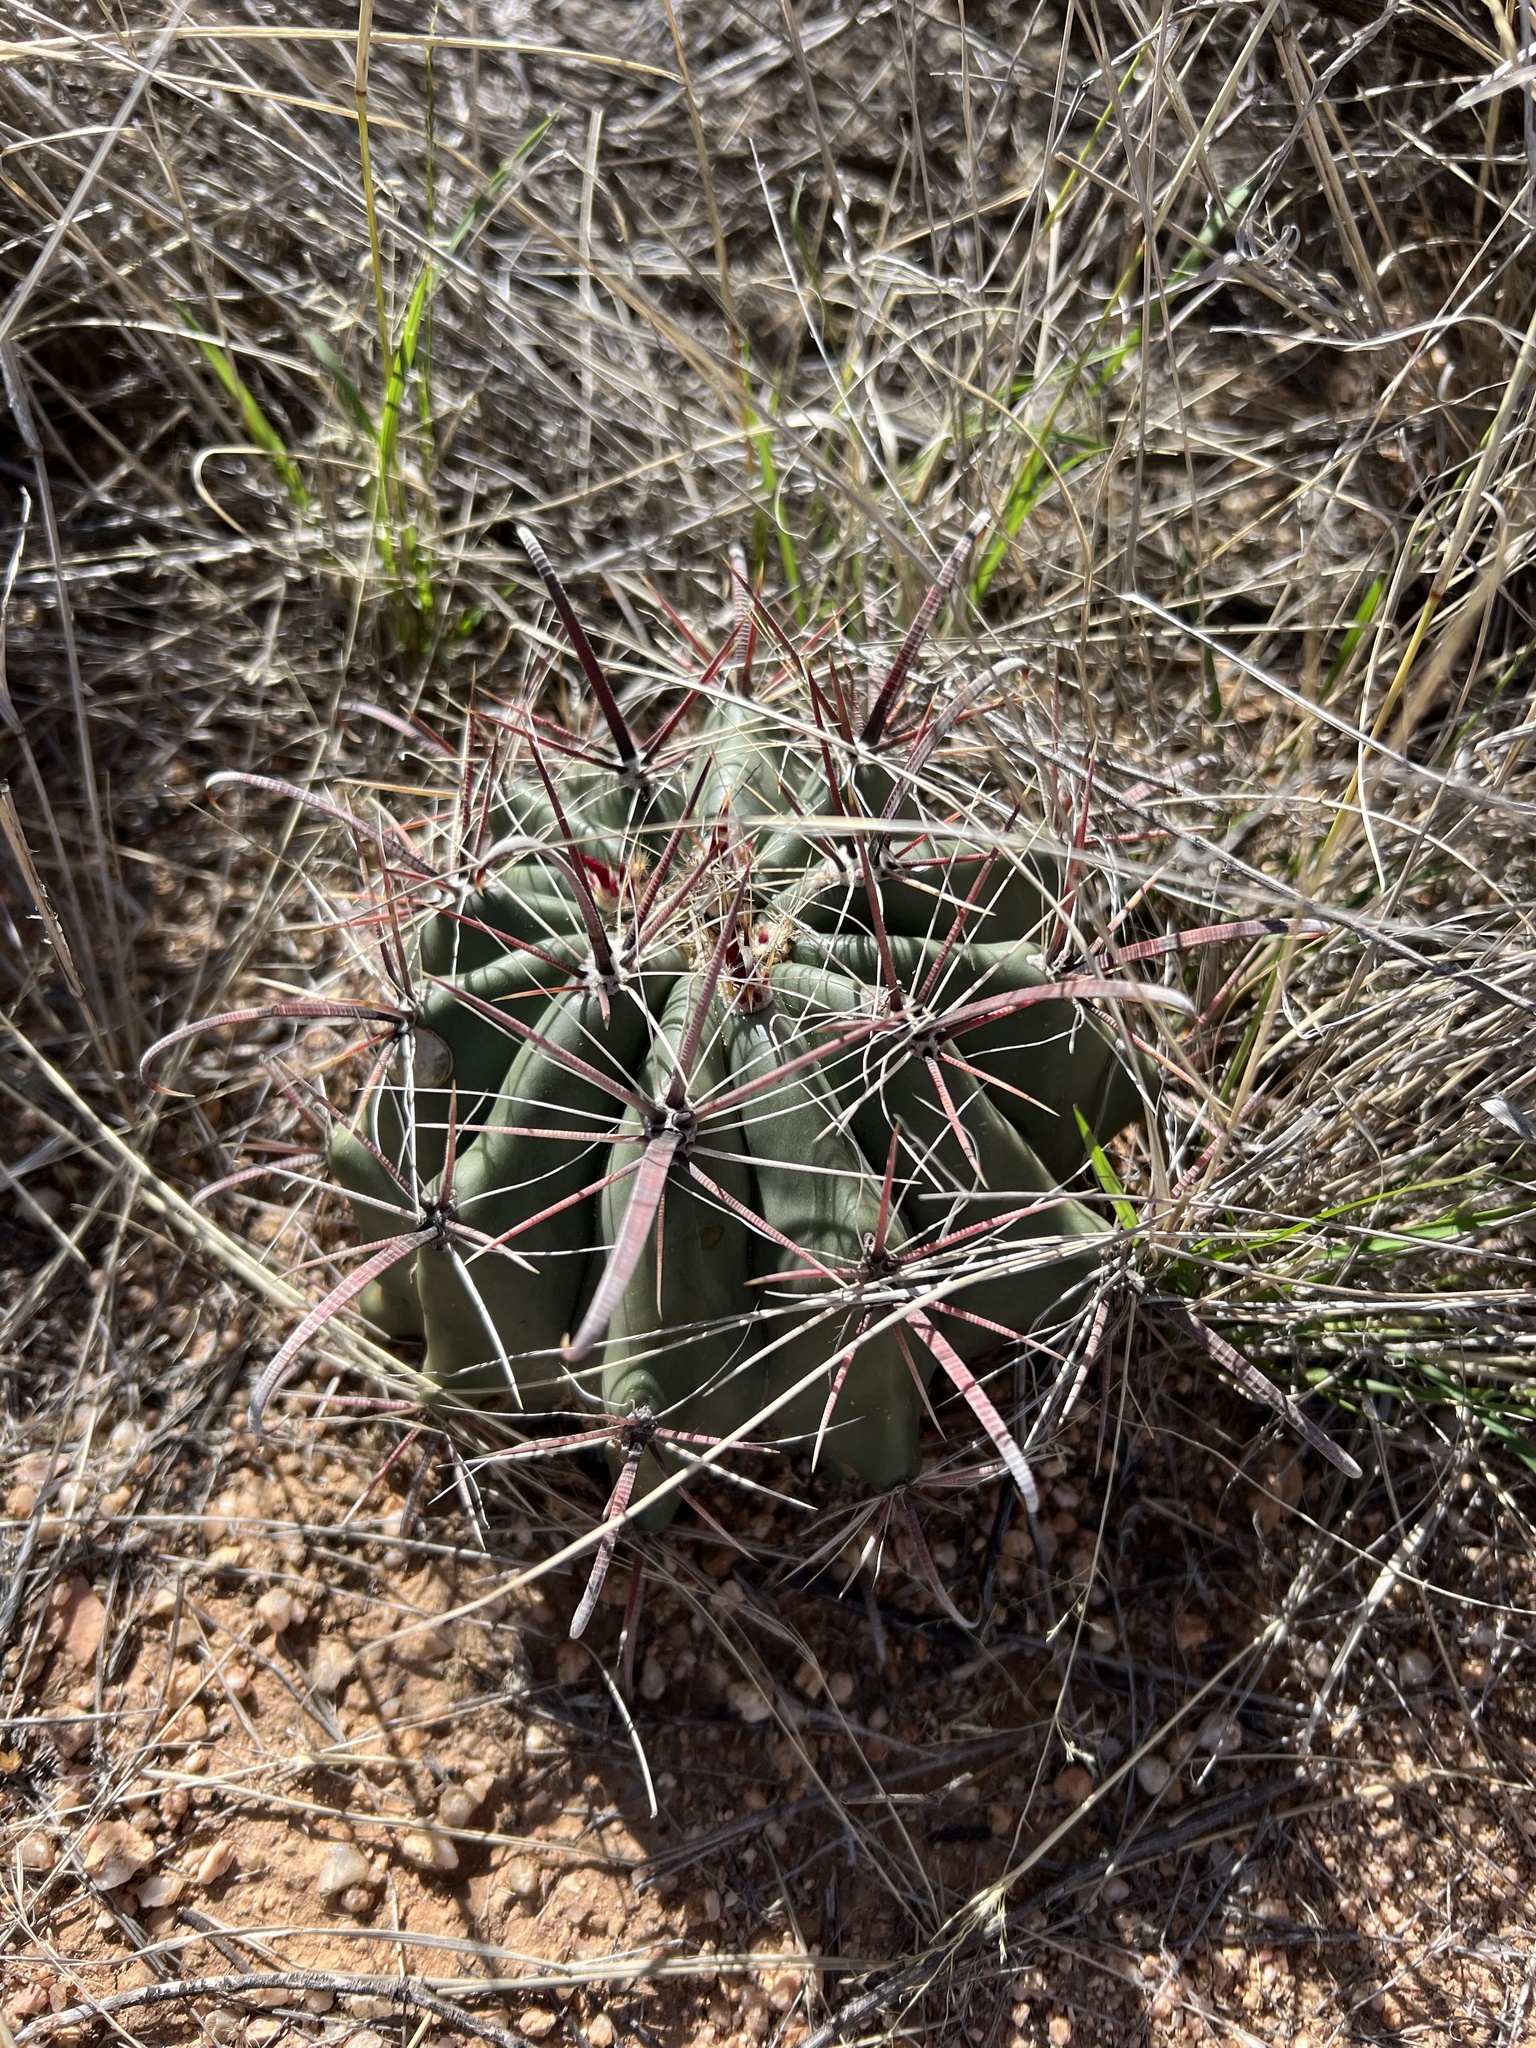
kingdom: Plantae
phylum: Tracheophyta
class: Magnoliopsida
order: Caryophyllales
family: Cactaceae
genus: Ferocactus
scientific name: Ferocactus wislizeni
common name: Candy barrel cactus
